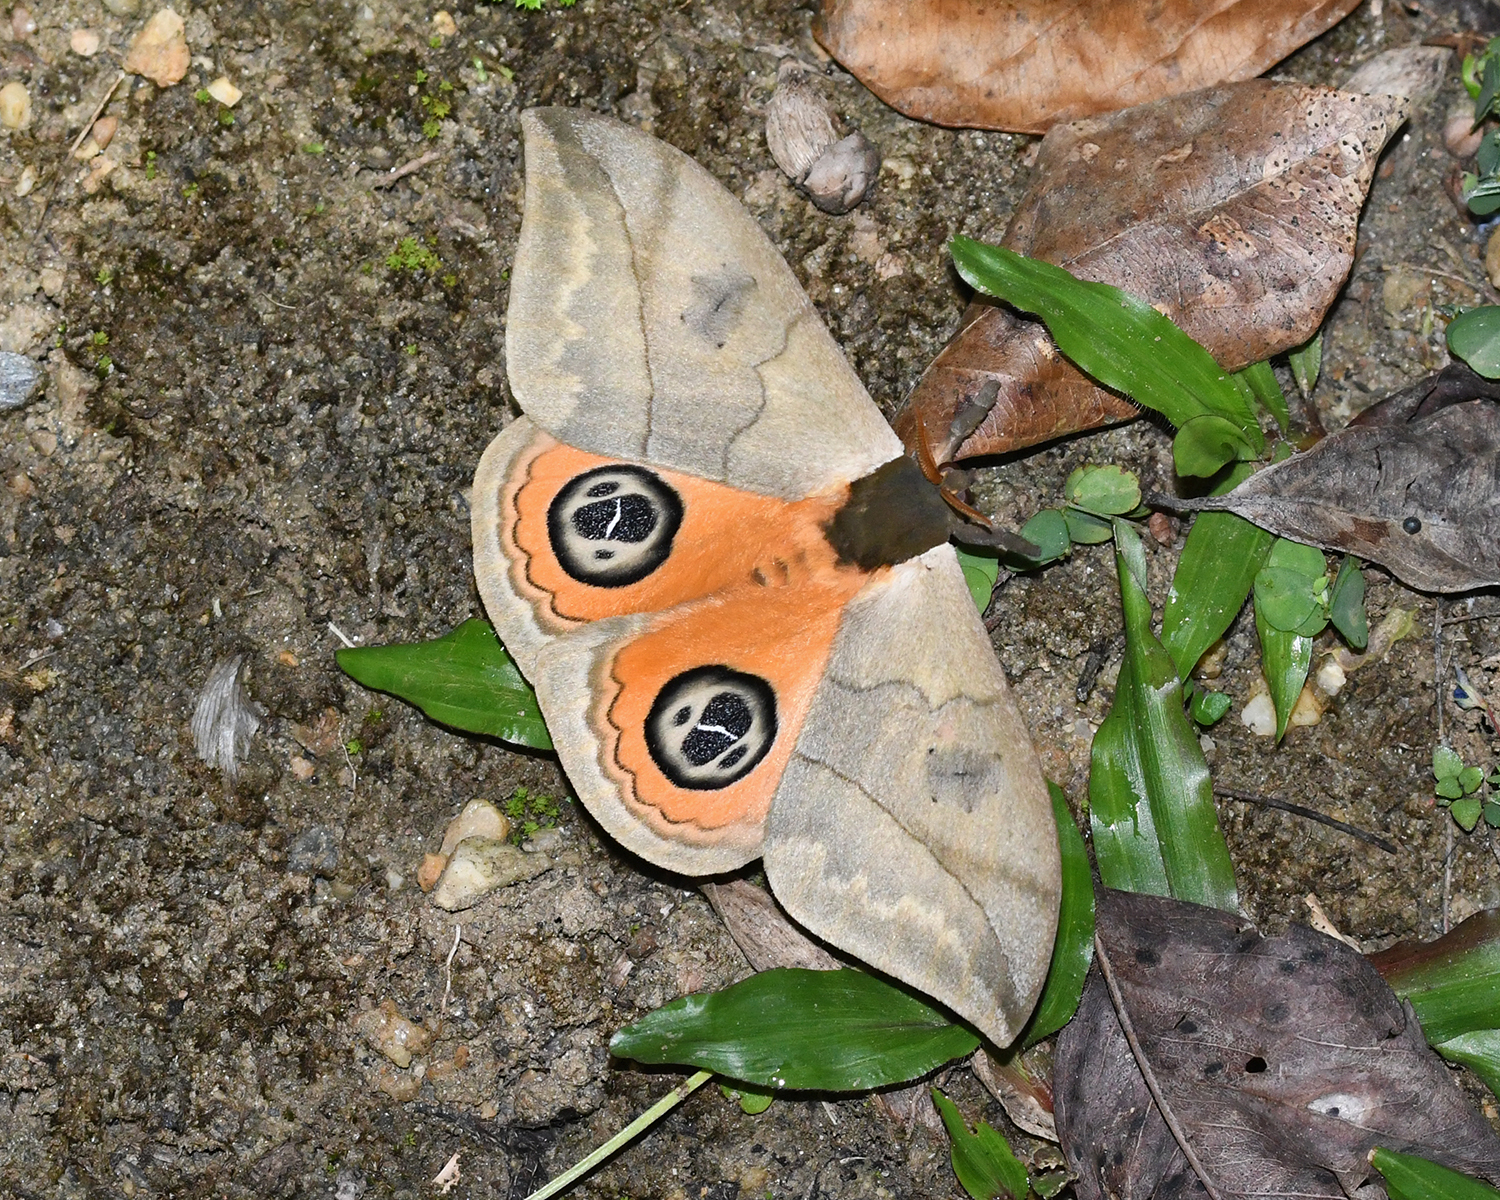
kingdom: Animalia
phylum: Arthropoda
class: Insecta
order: Lepidoptera
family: Saturniidae
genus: Automeris
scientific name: Automeris liberia
